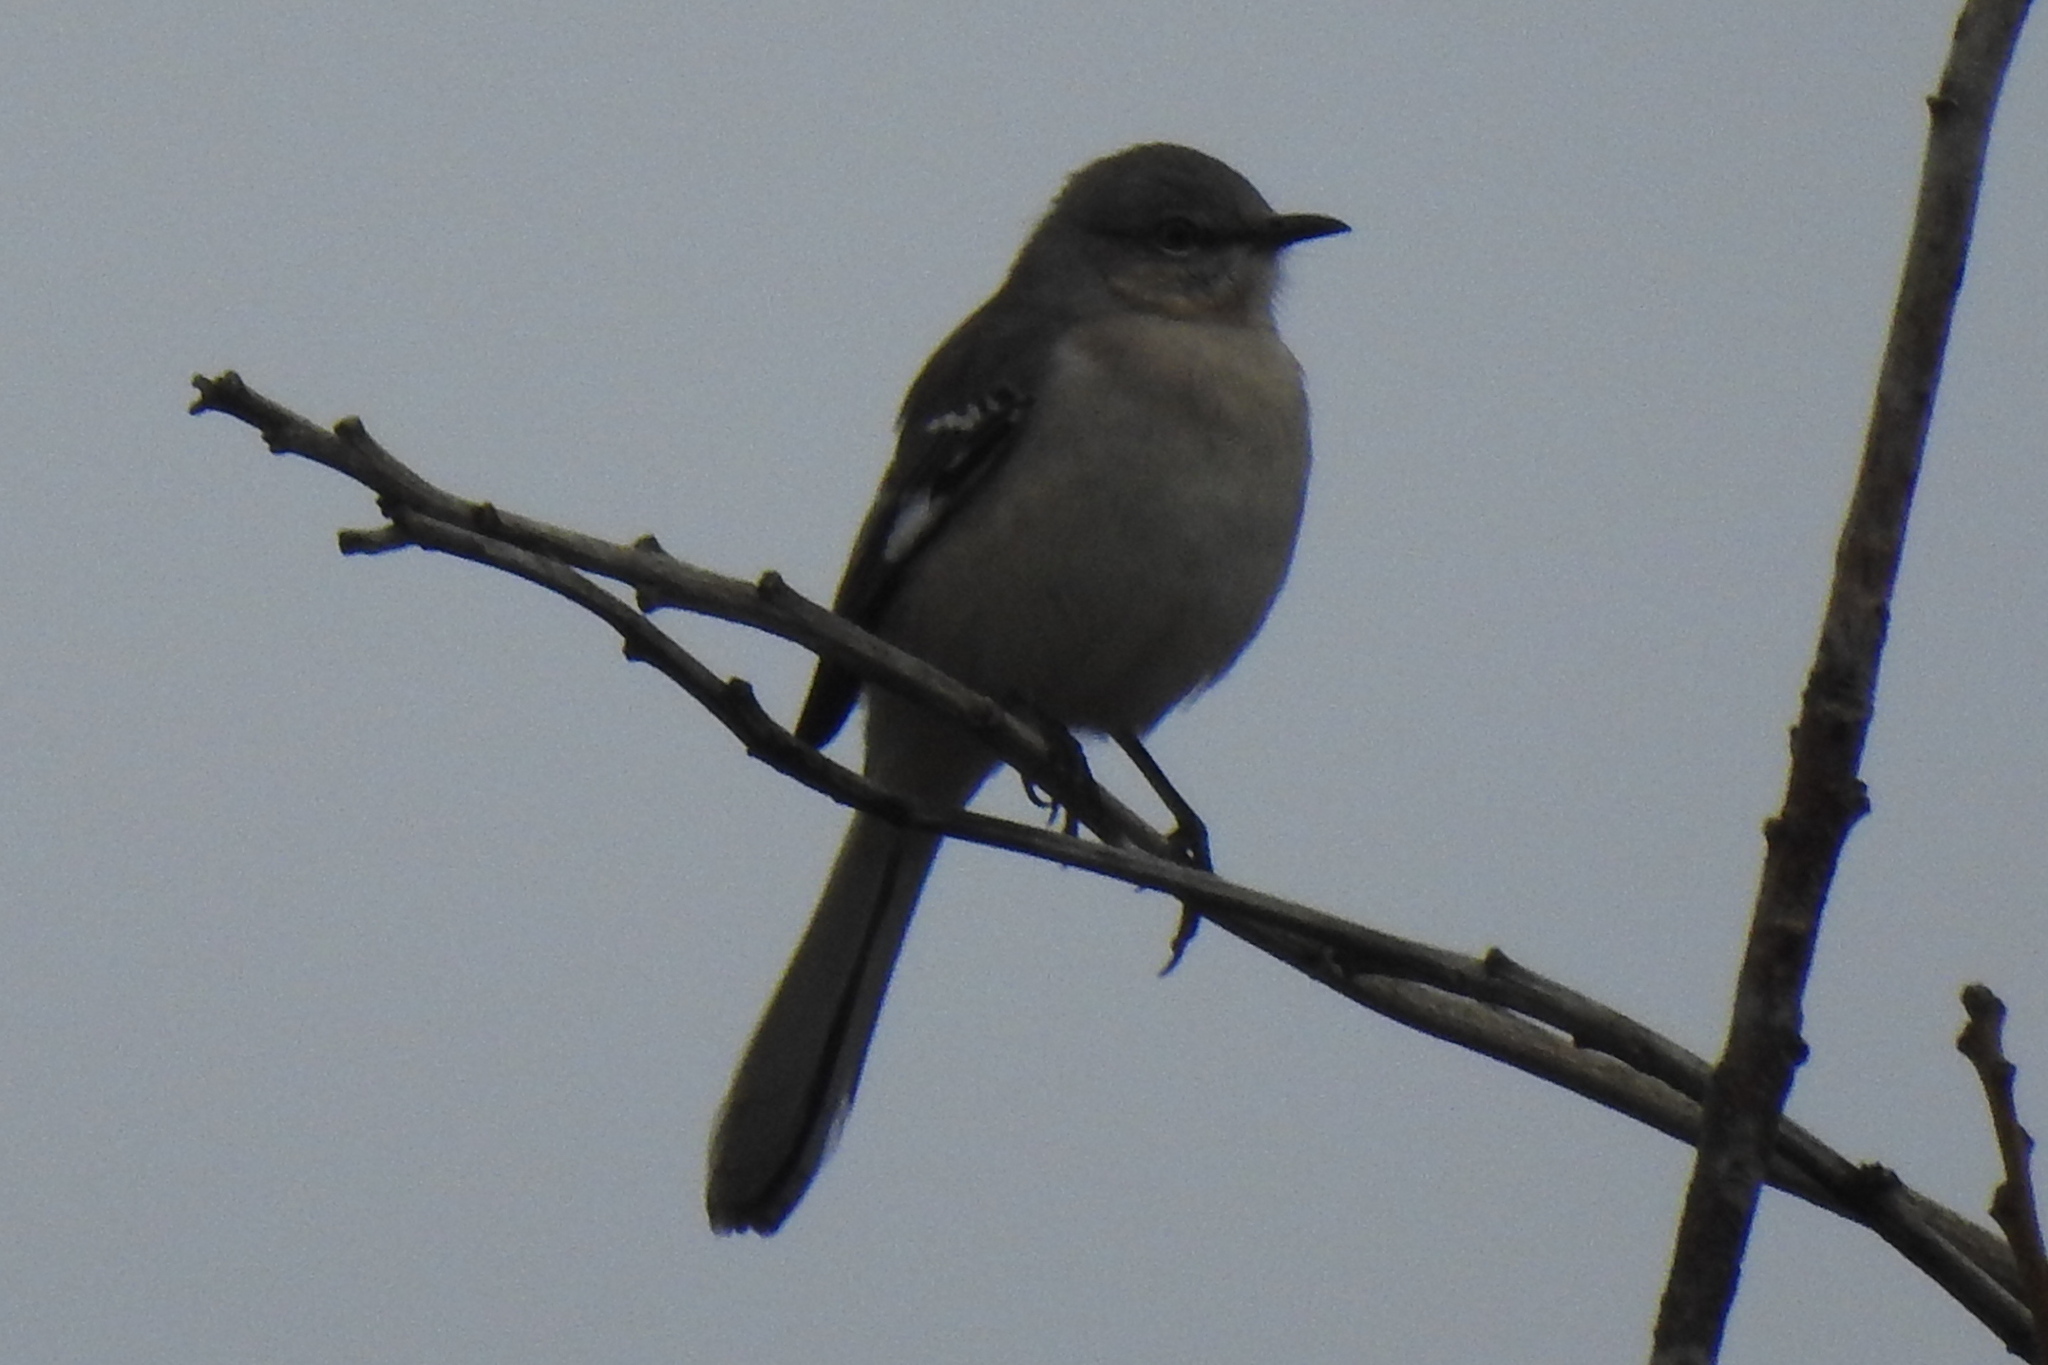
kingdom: Animalia
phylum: Chordata
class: Aves
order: Passeriformes
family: Mimidae
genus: Mimus
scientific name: Mimus polyglottos
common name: Northern mockingbird
